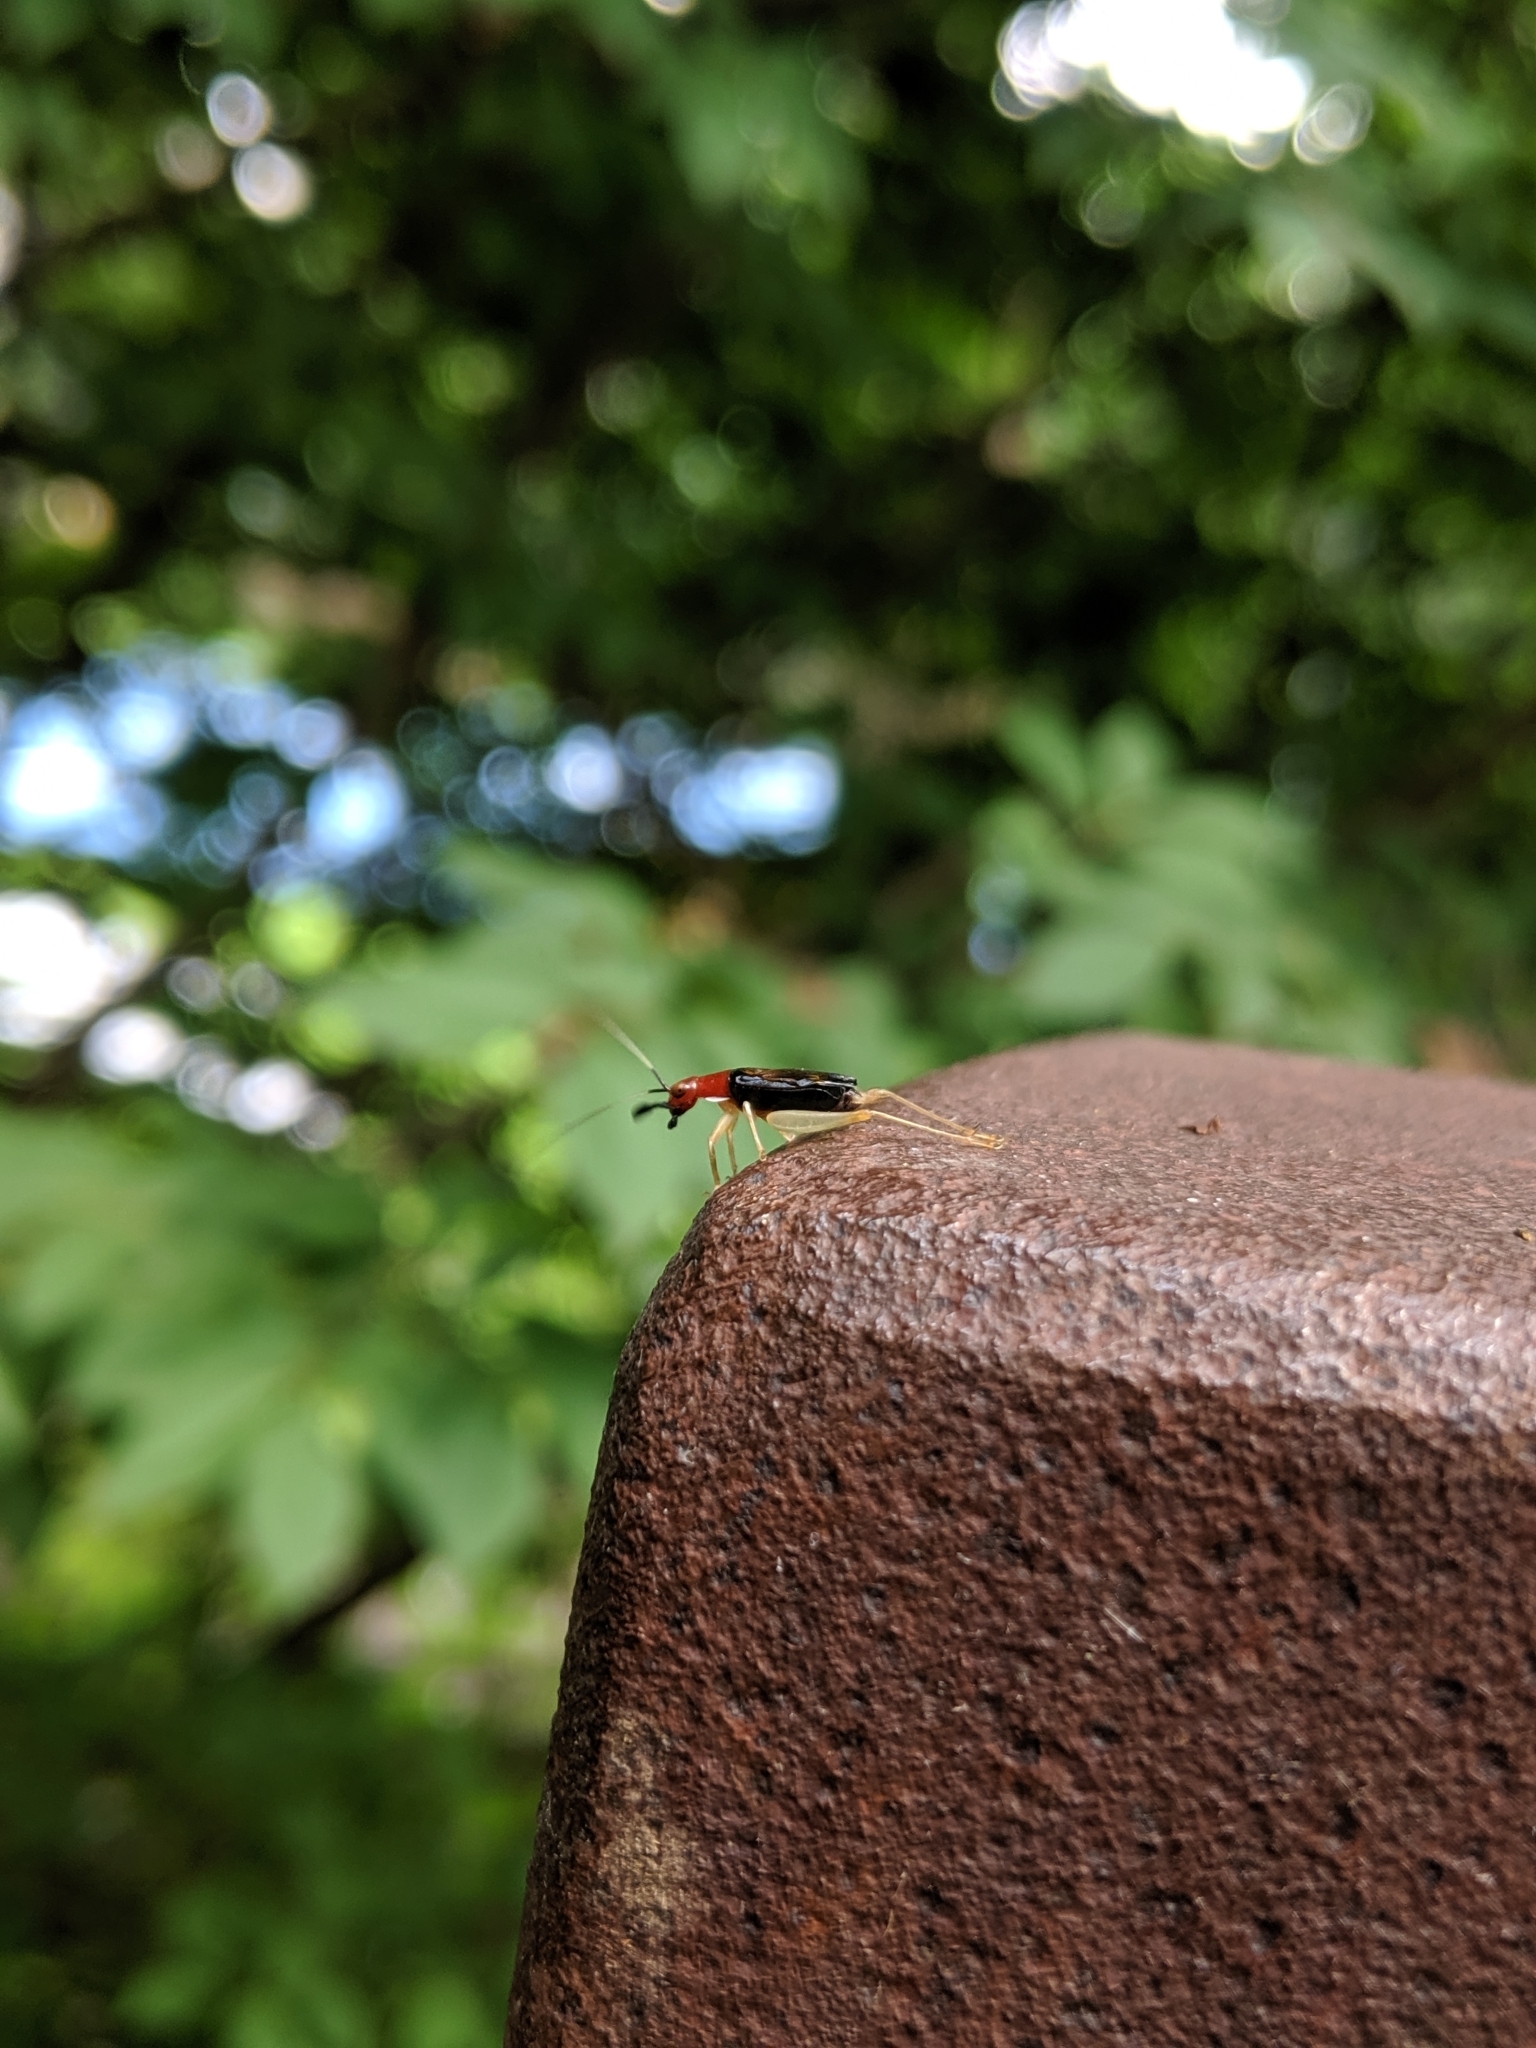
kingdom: Animalia
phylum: Arthropoda
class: Insecta
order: Orthoptera
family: Trigonidiidae
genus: Phyllopalpus
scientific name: Phyllopalpus pulchellus
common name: Handsome trig
